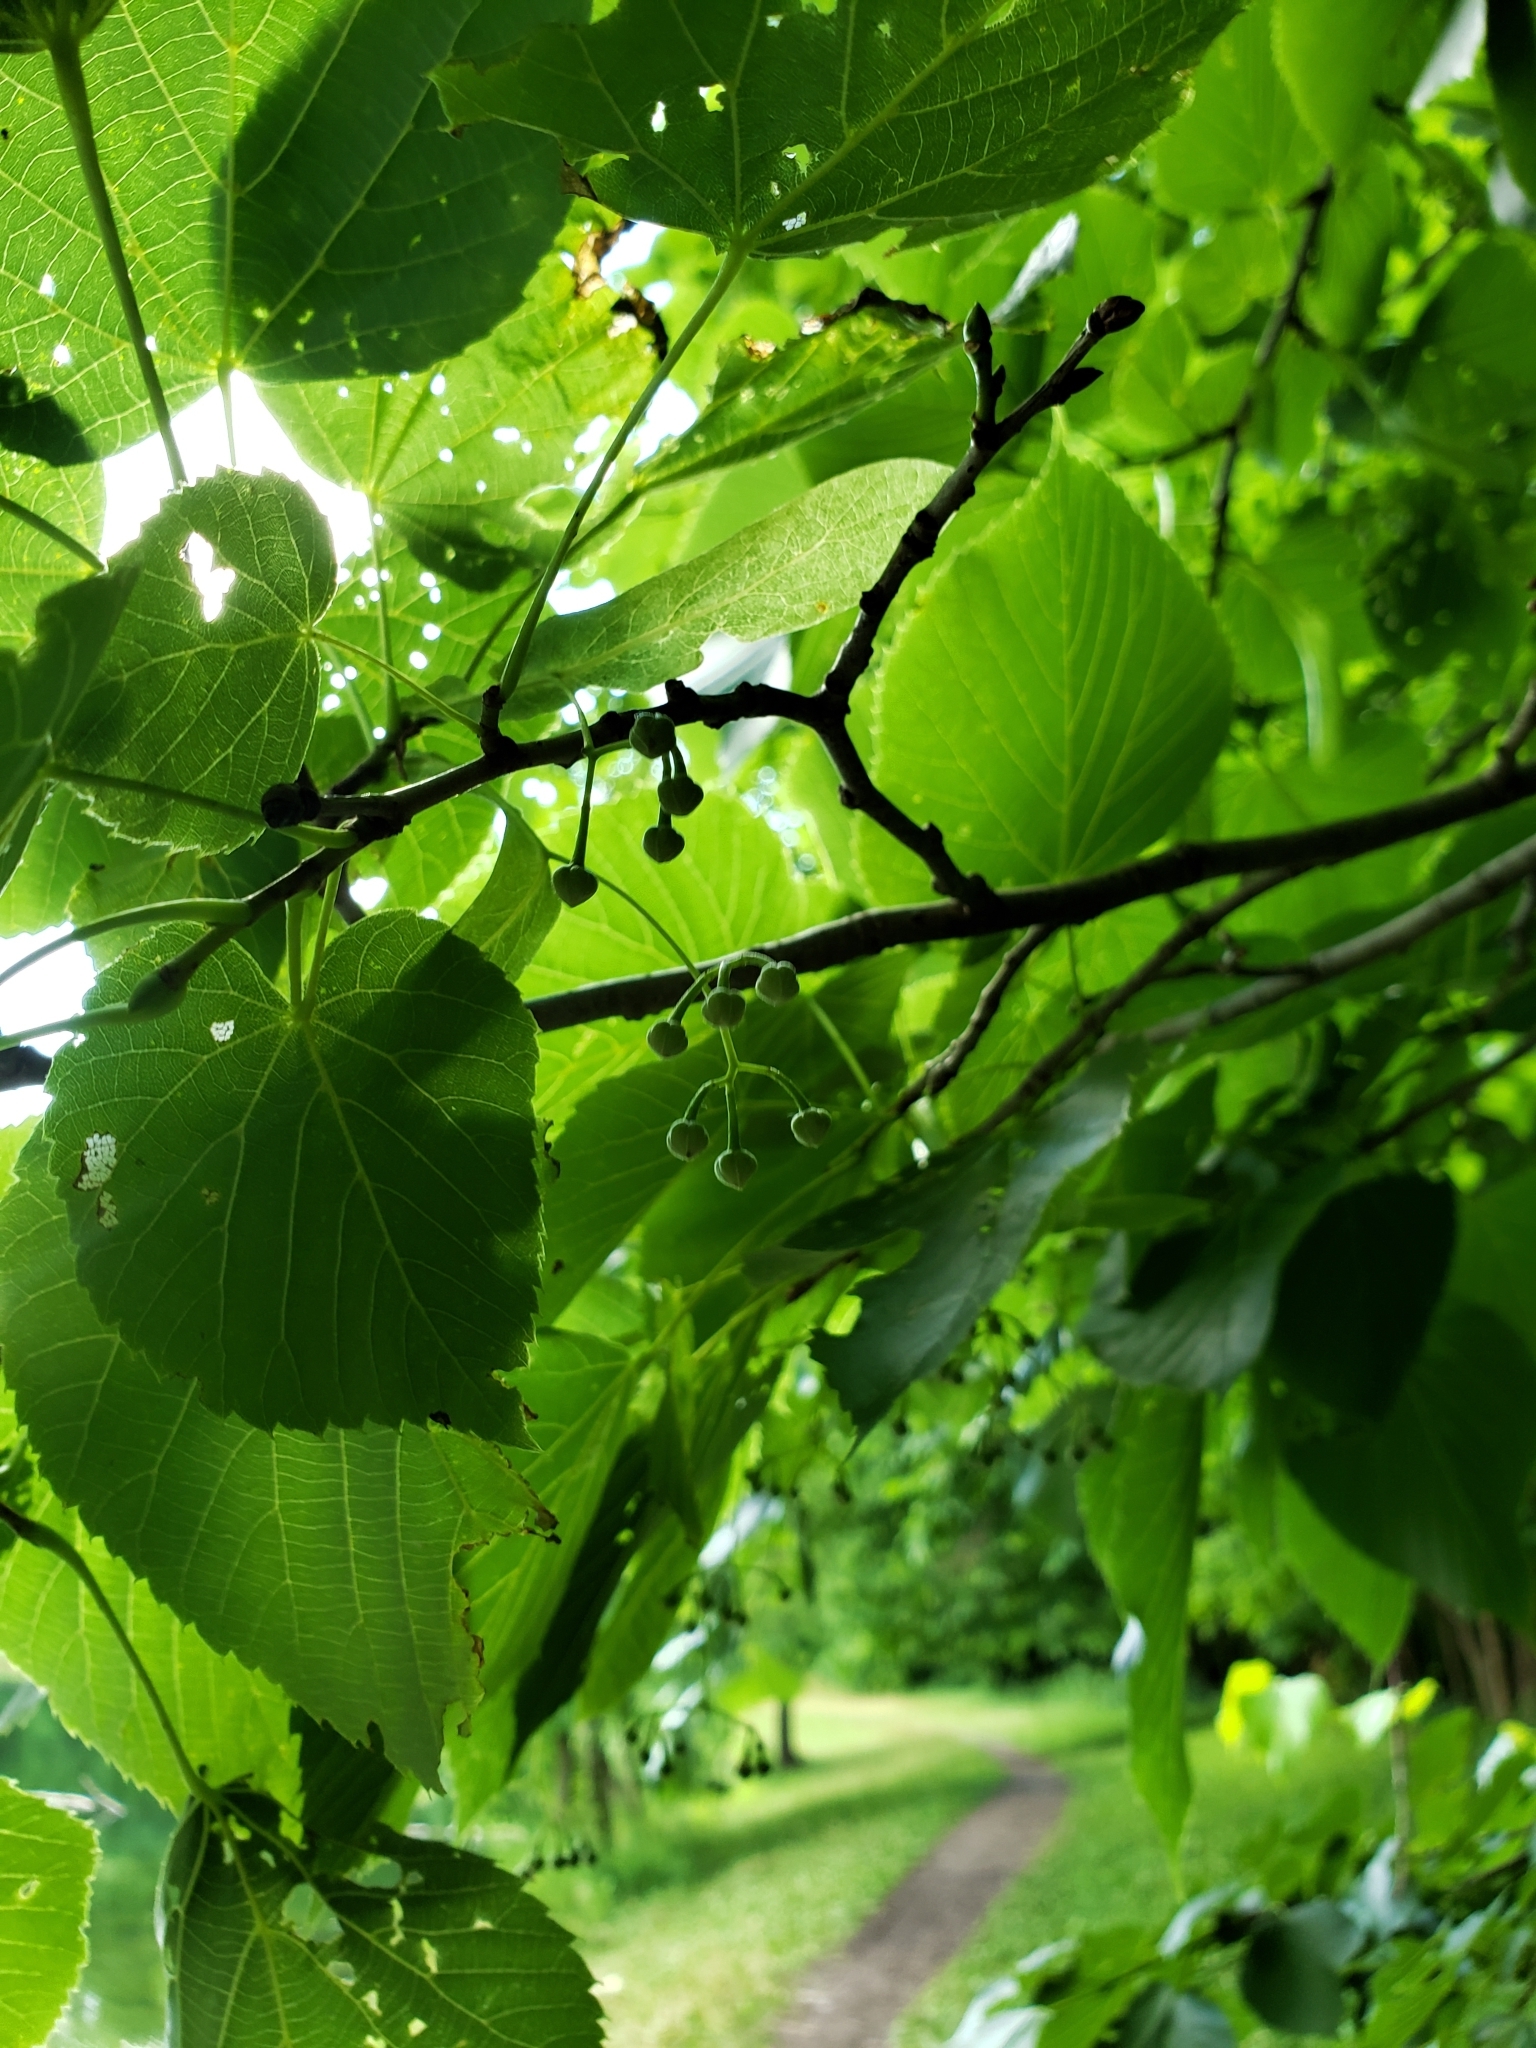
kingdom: Plantae
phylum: Tracheophyta
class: Magnoliopsida
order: Malvales
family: Malvaceae
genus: Tilia
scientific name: Tilia americana
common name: Basswood
